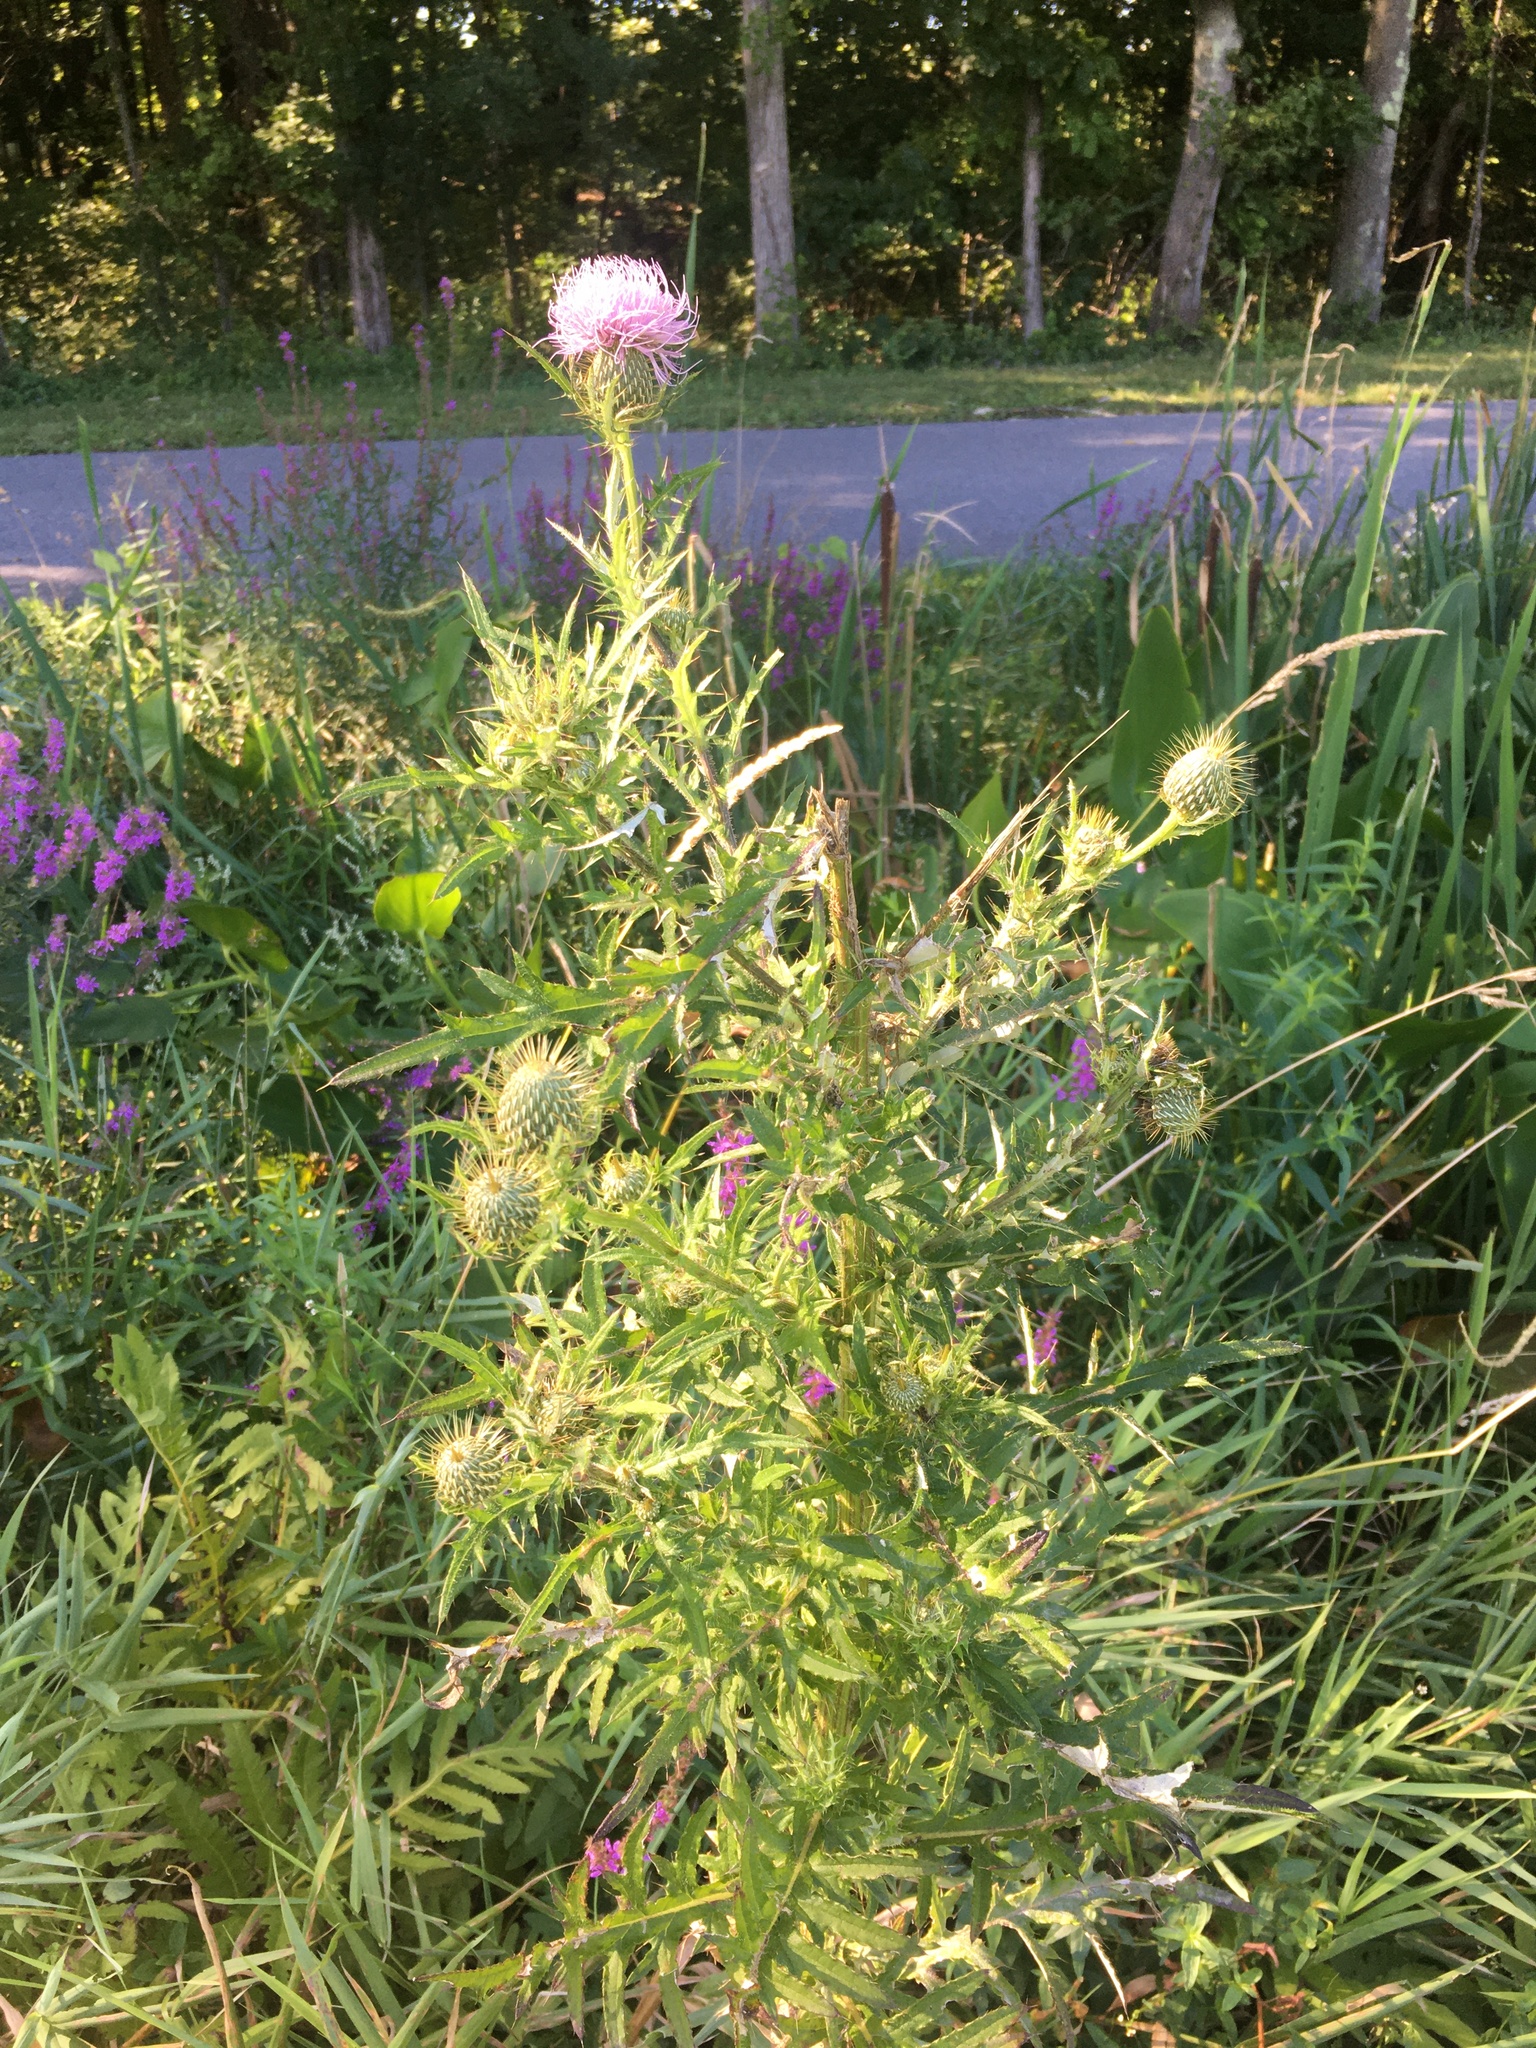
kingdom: Plantae
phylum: Tracheophyta
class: Magnoliopsida
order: Asterales
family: Asteraceae
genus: Cirsium
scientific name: Cirsium discolor
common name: Field thistle
